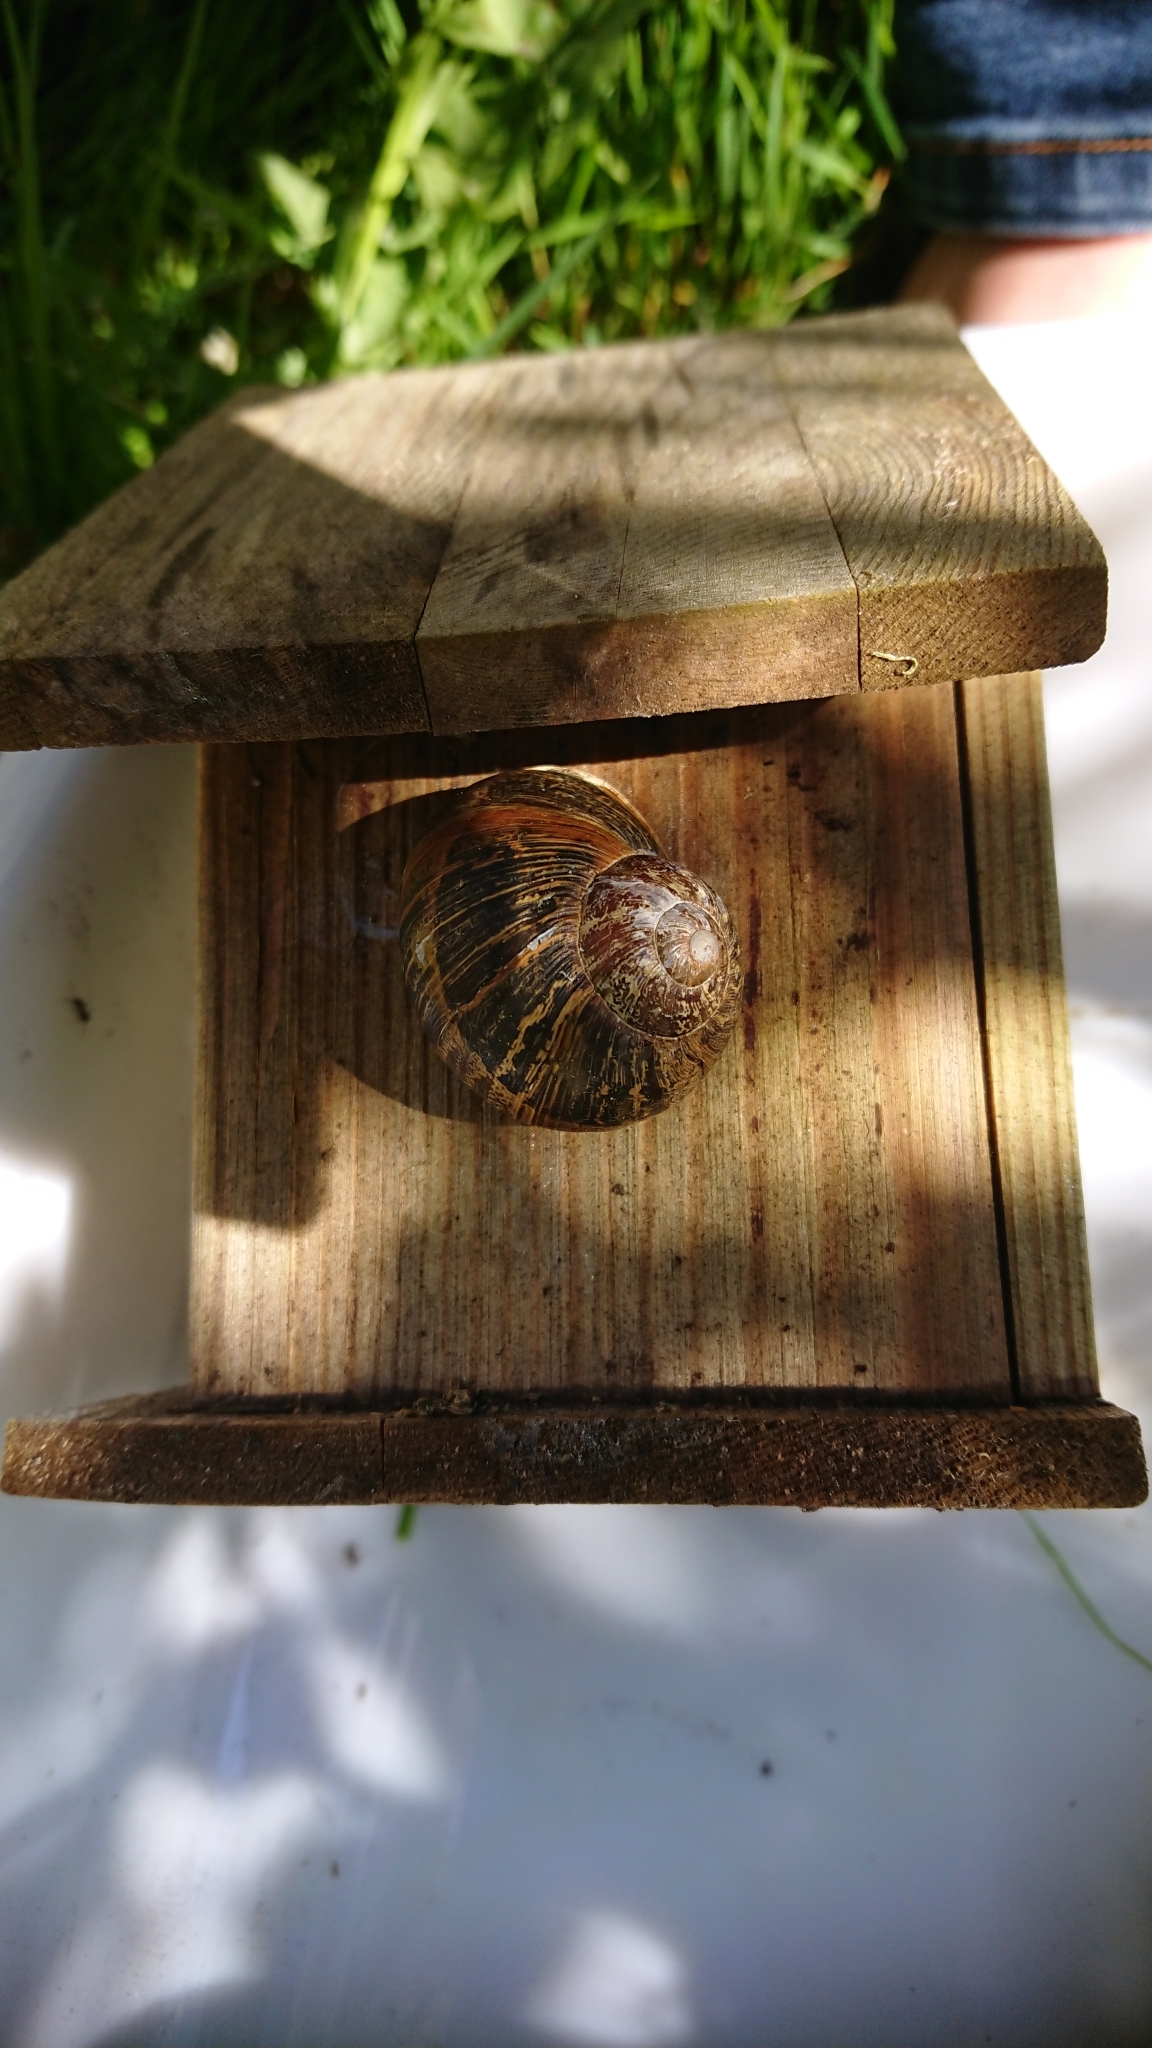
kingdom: Animalia
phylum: Mollusca
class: Gastropoda
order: Stylommatophora
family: Helicidae
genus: Cornu
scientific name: Cornu aspersum
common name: Brown garden snail
